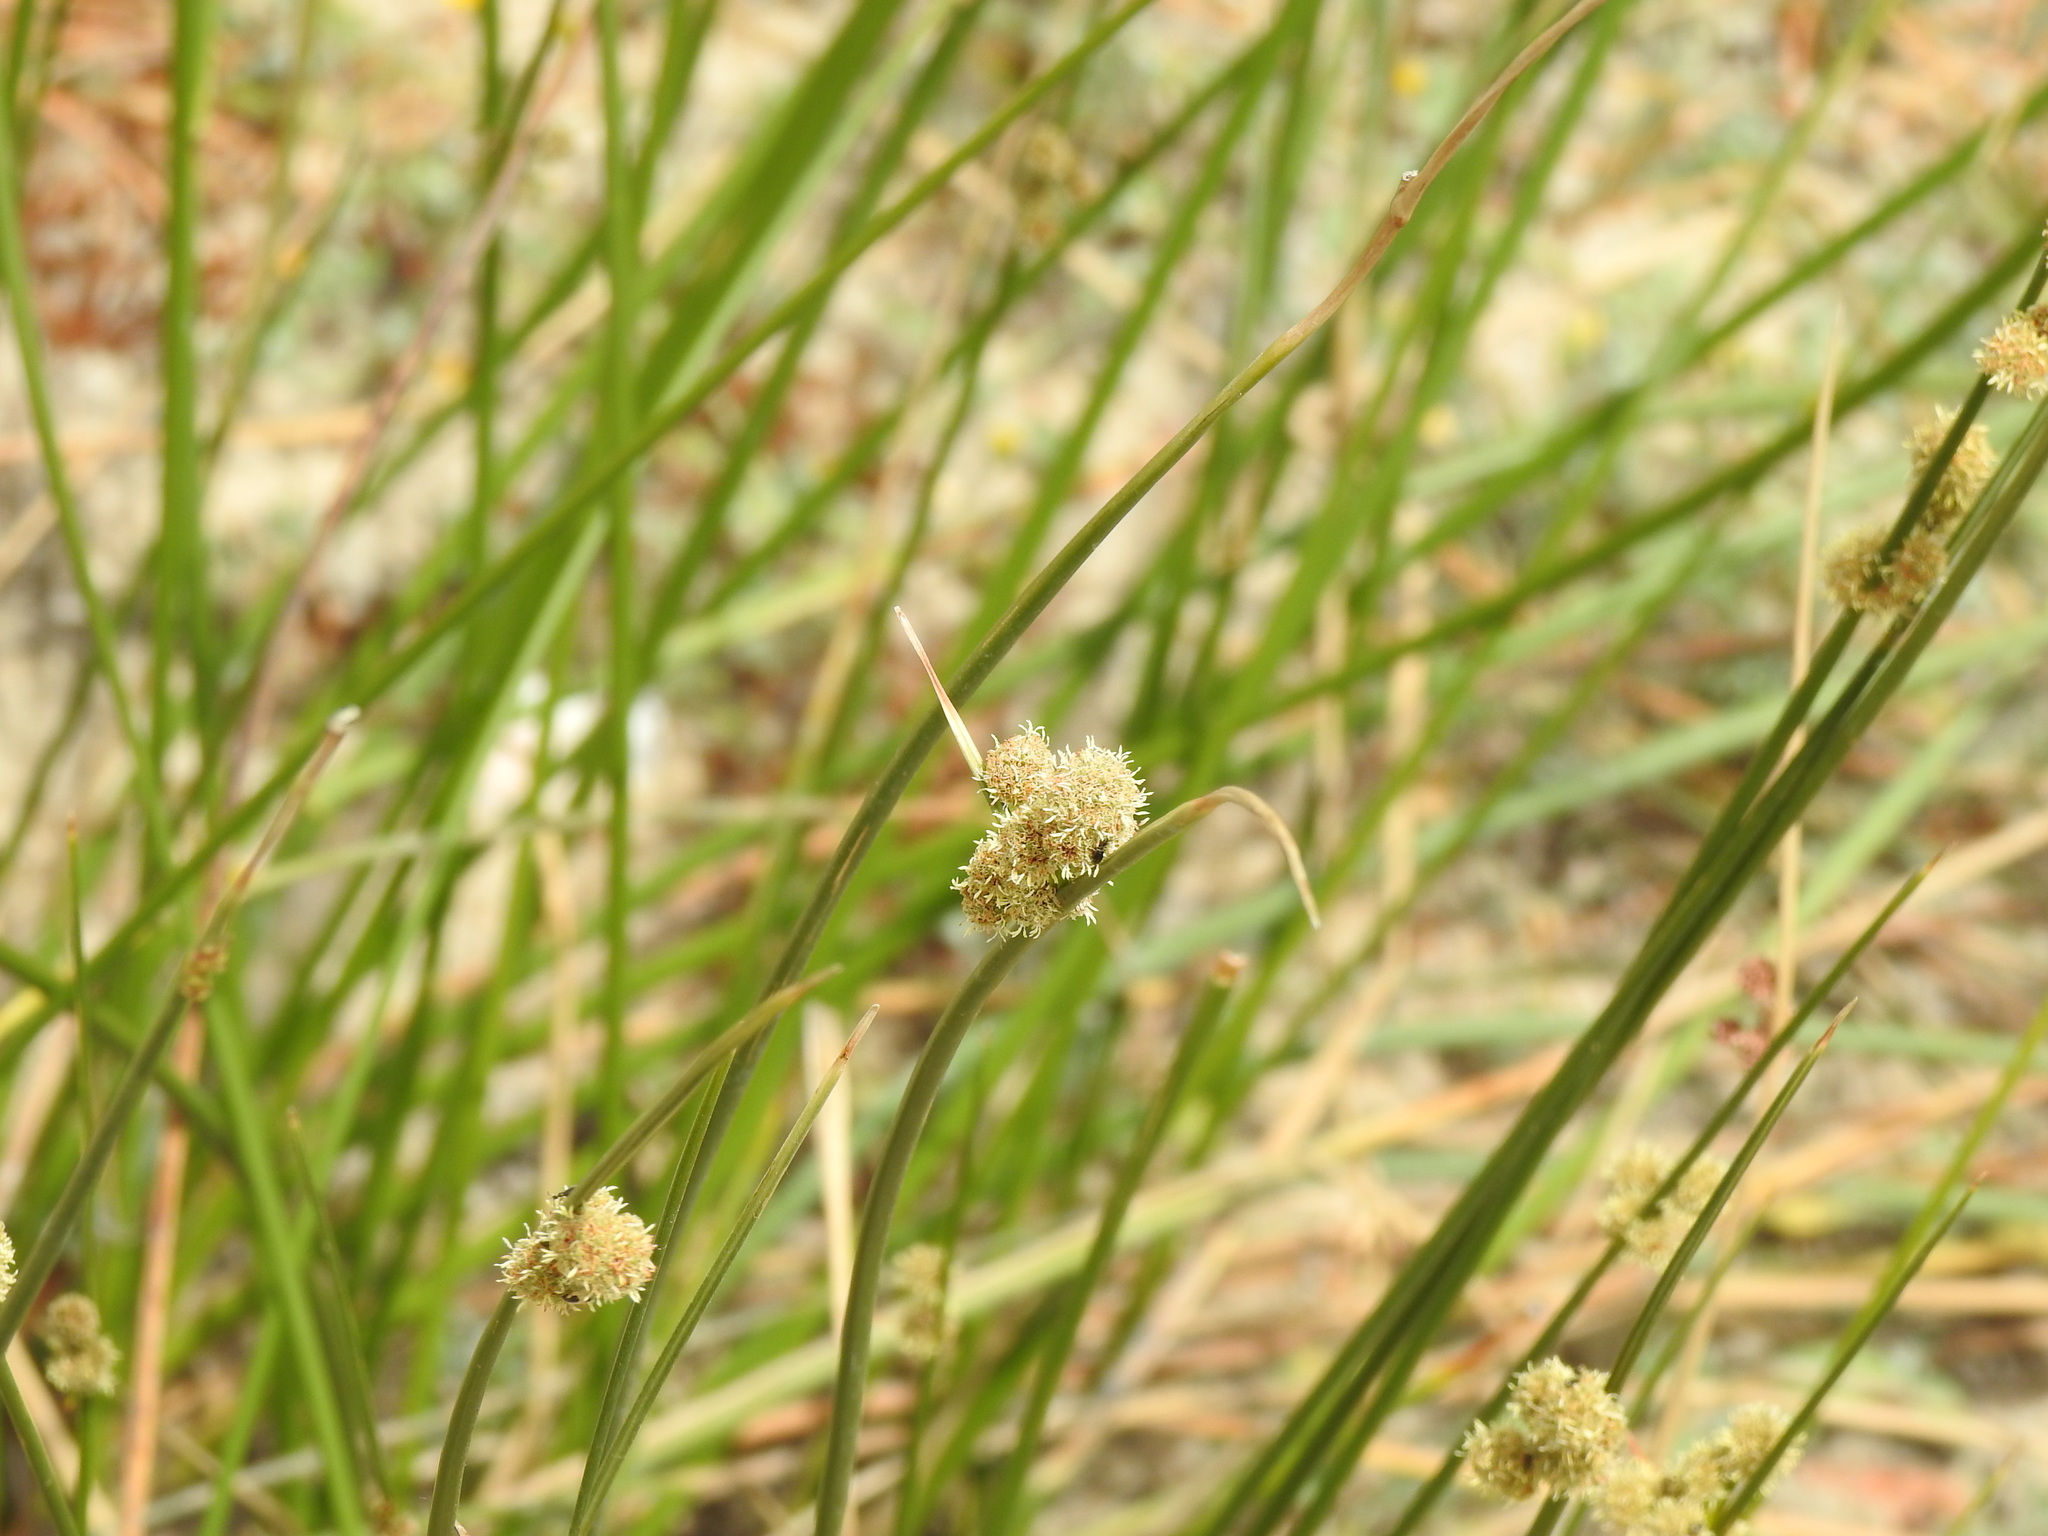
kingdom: Plantae
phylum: Tracheophyta
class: Liliopsida
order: Poales
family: Cyperaceae
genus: Scirpoides
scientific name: Scirpoides holoschoenus
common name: Round-headed club-rush
